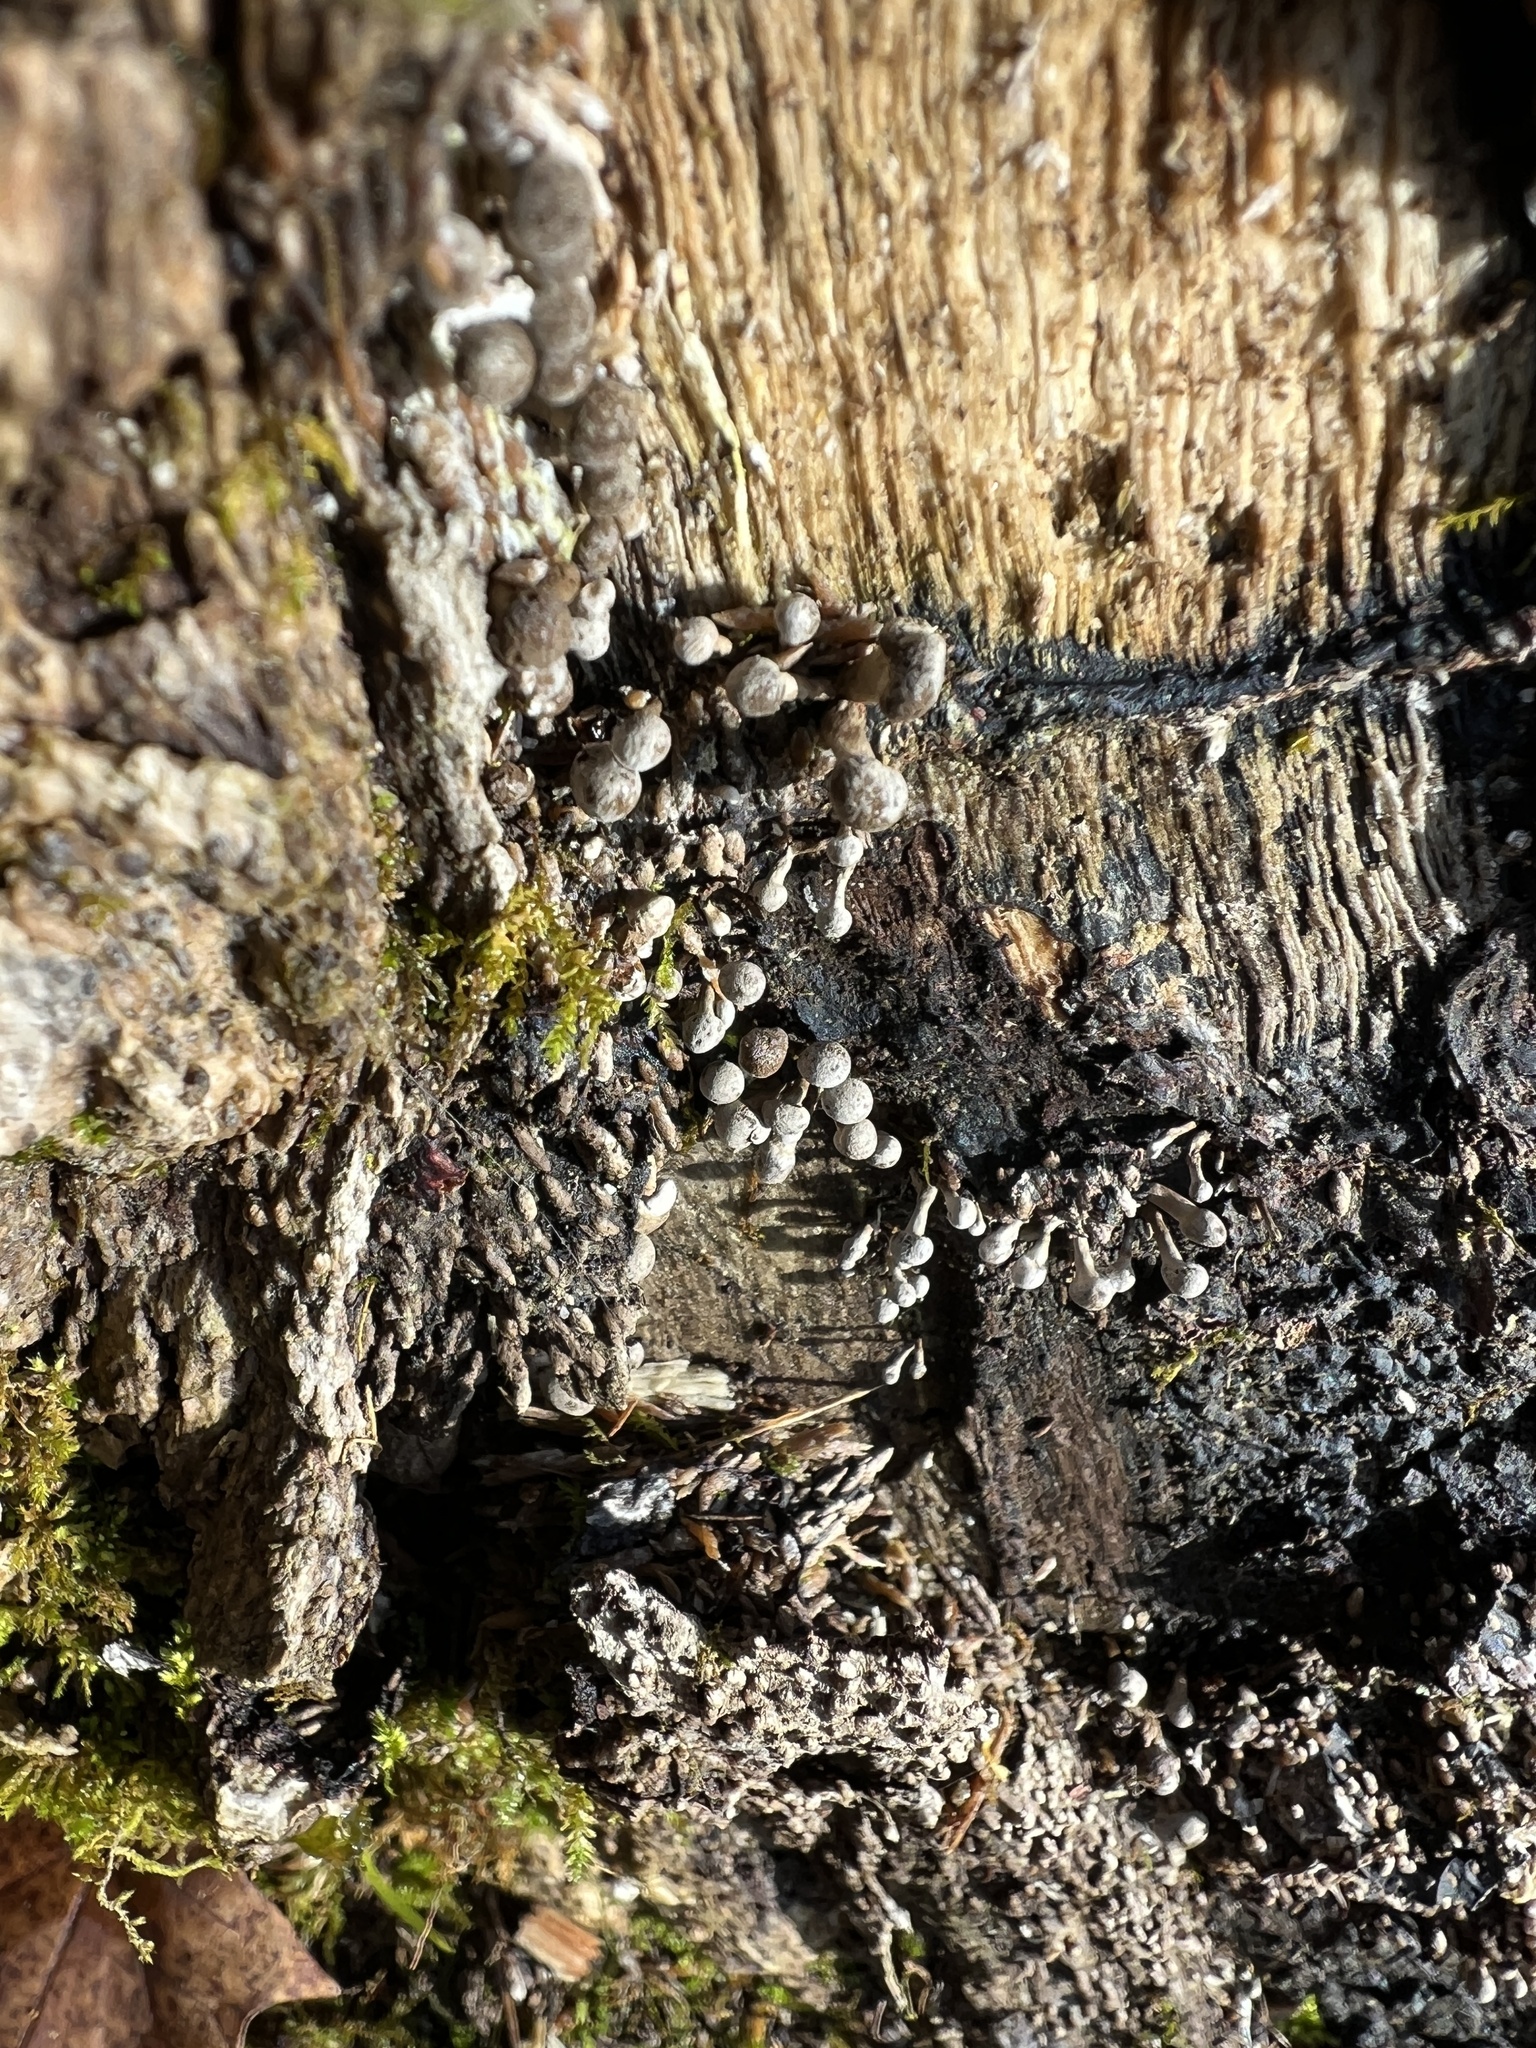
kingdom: Fungi
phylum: Basidiomycota
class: Atractiellomycetes
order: Atractiellales
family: Phleogenaceae
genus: Phleogena
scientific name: Phleogena faginea
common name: Fenugreek stalkball
